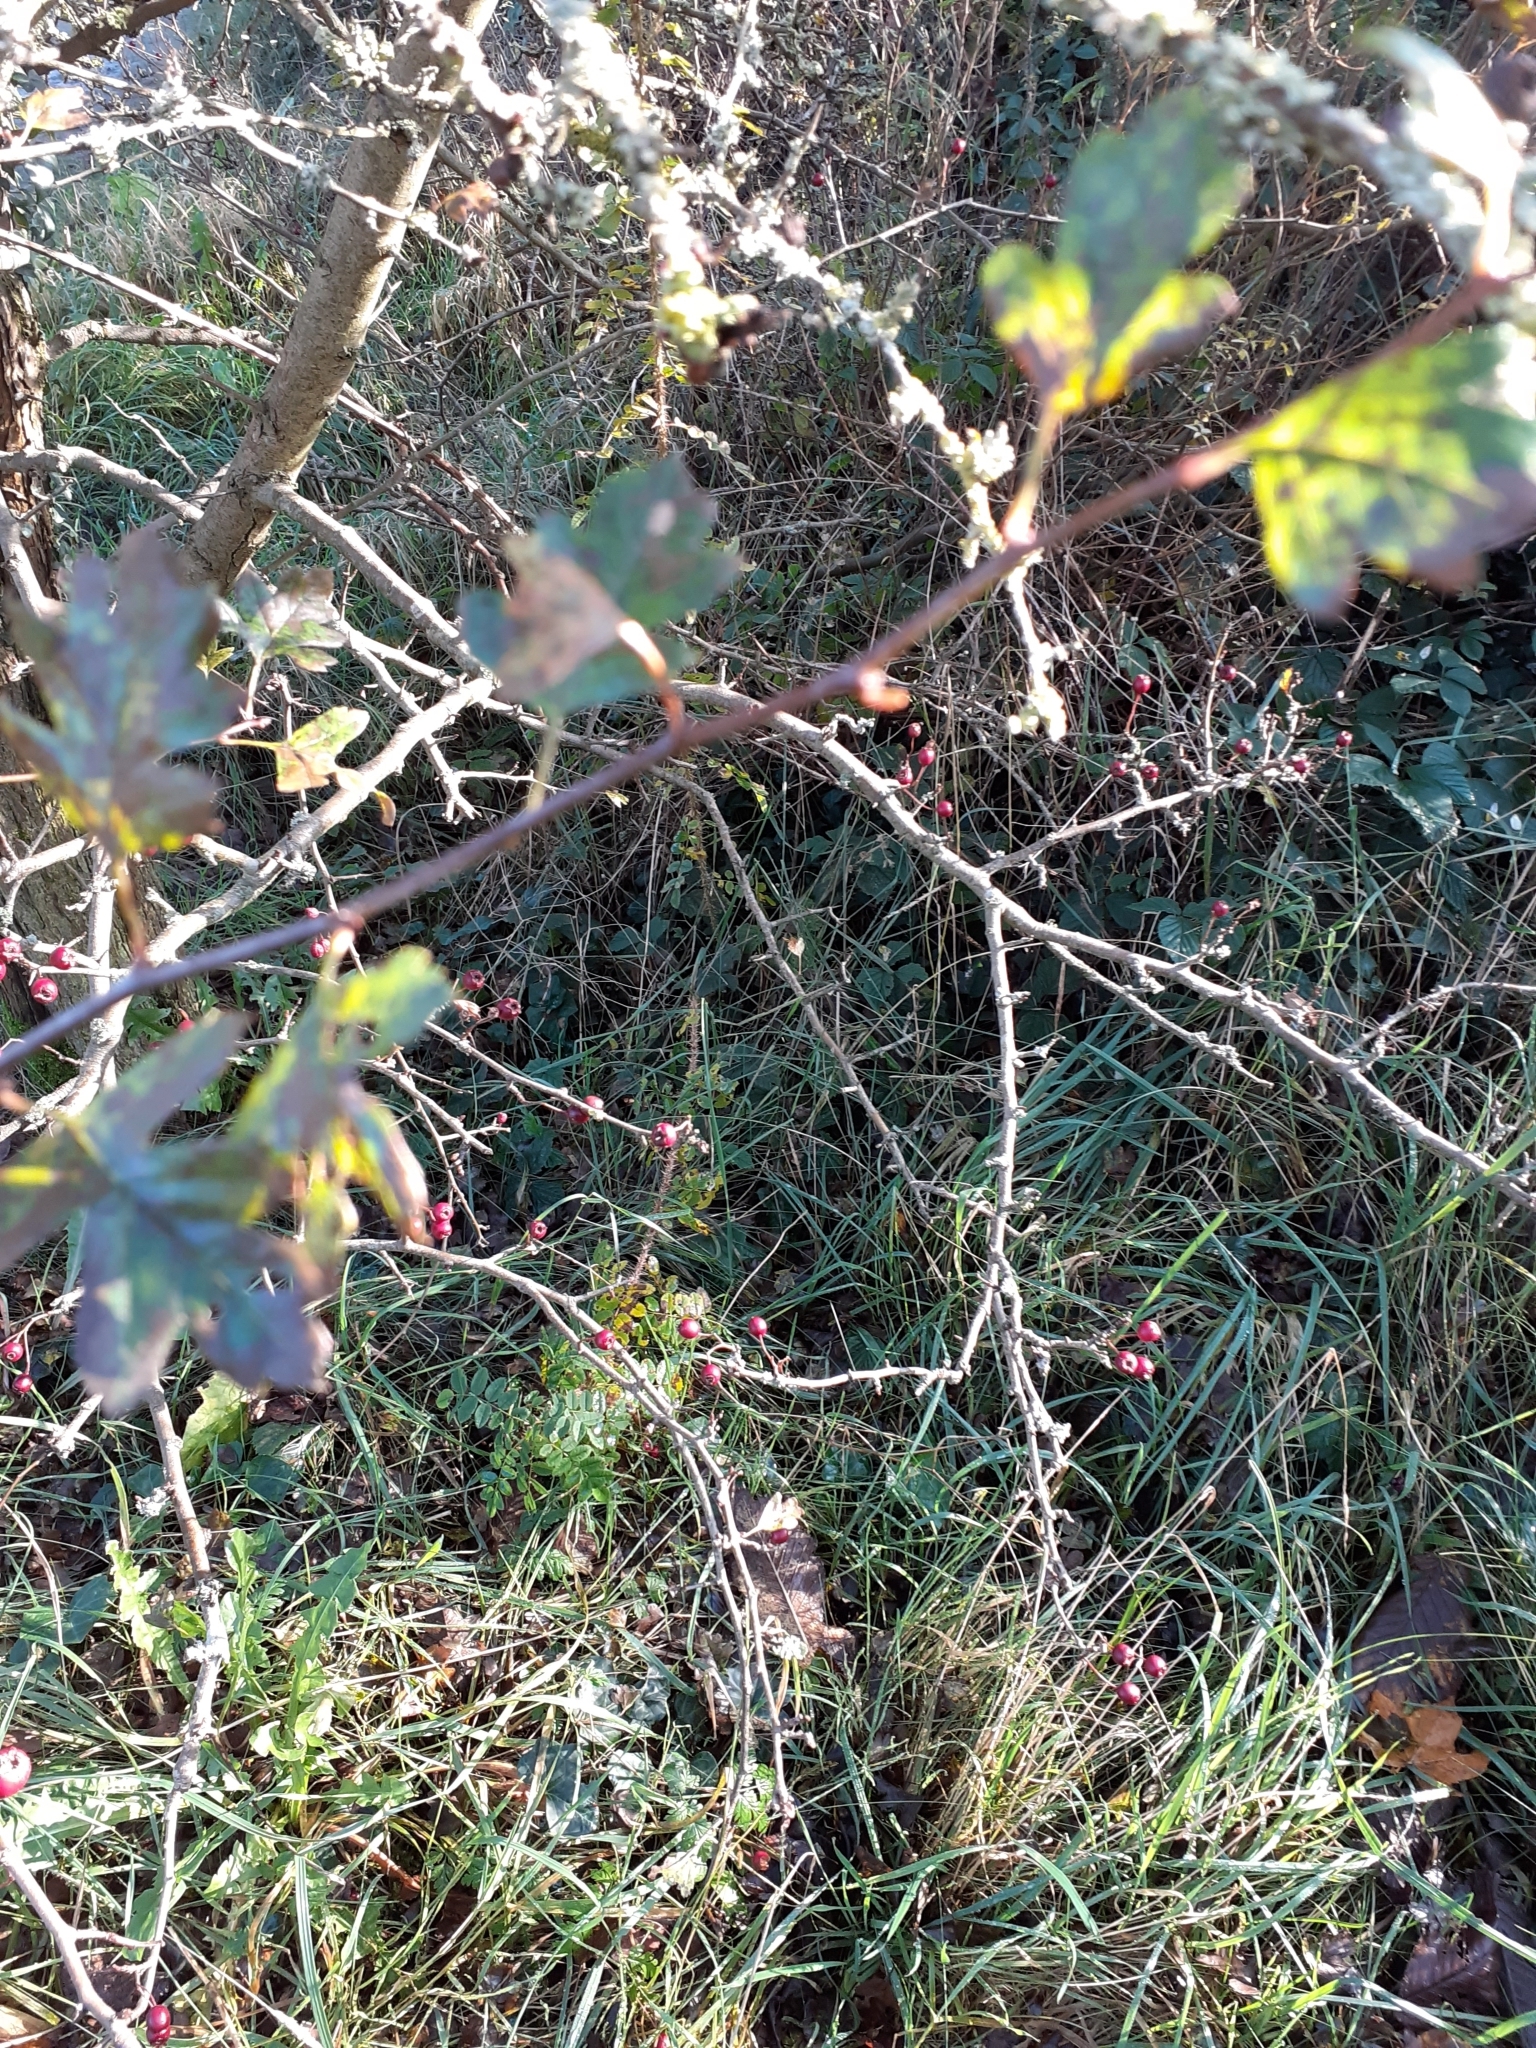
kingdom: Plantae
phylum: Tracheophyta
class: Magnoliopsida
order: Rosales
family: Rosaceae
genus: Crataegus
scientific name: Crataegus monogyna
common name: Hawthorn
